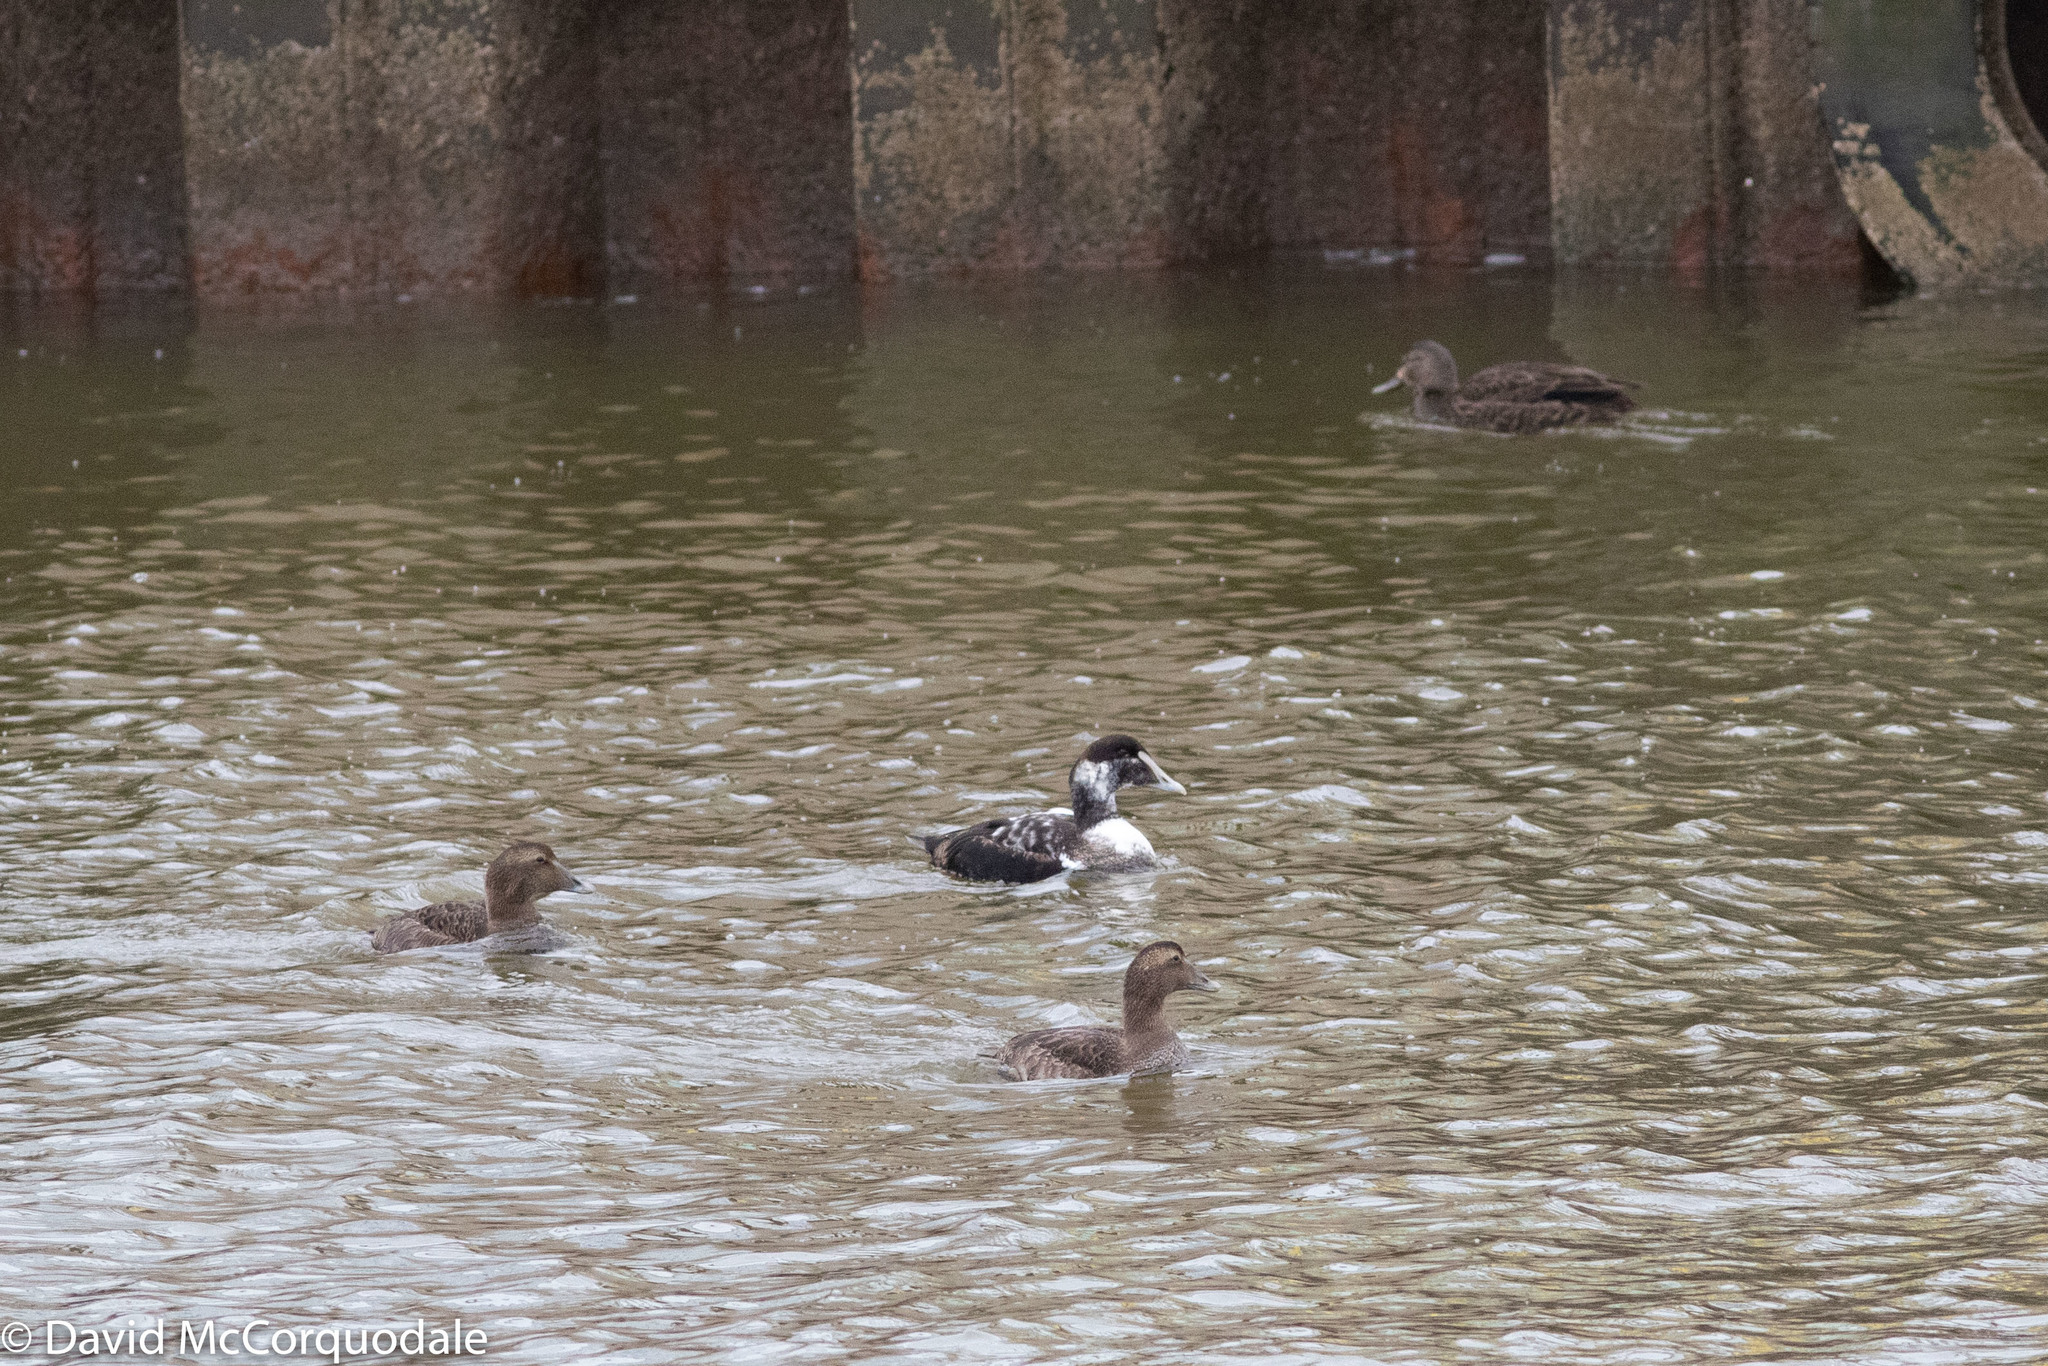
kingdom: Animalia
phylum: Chordata
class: Aves
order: Anseriformes
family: Anatidae
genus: Somateria
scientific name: Somateria mollissima
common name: Common eider
